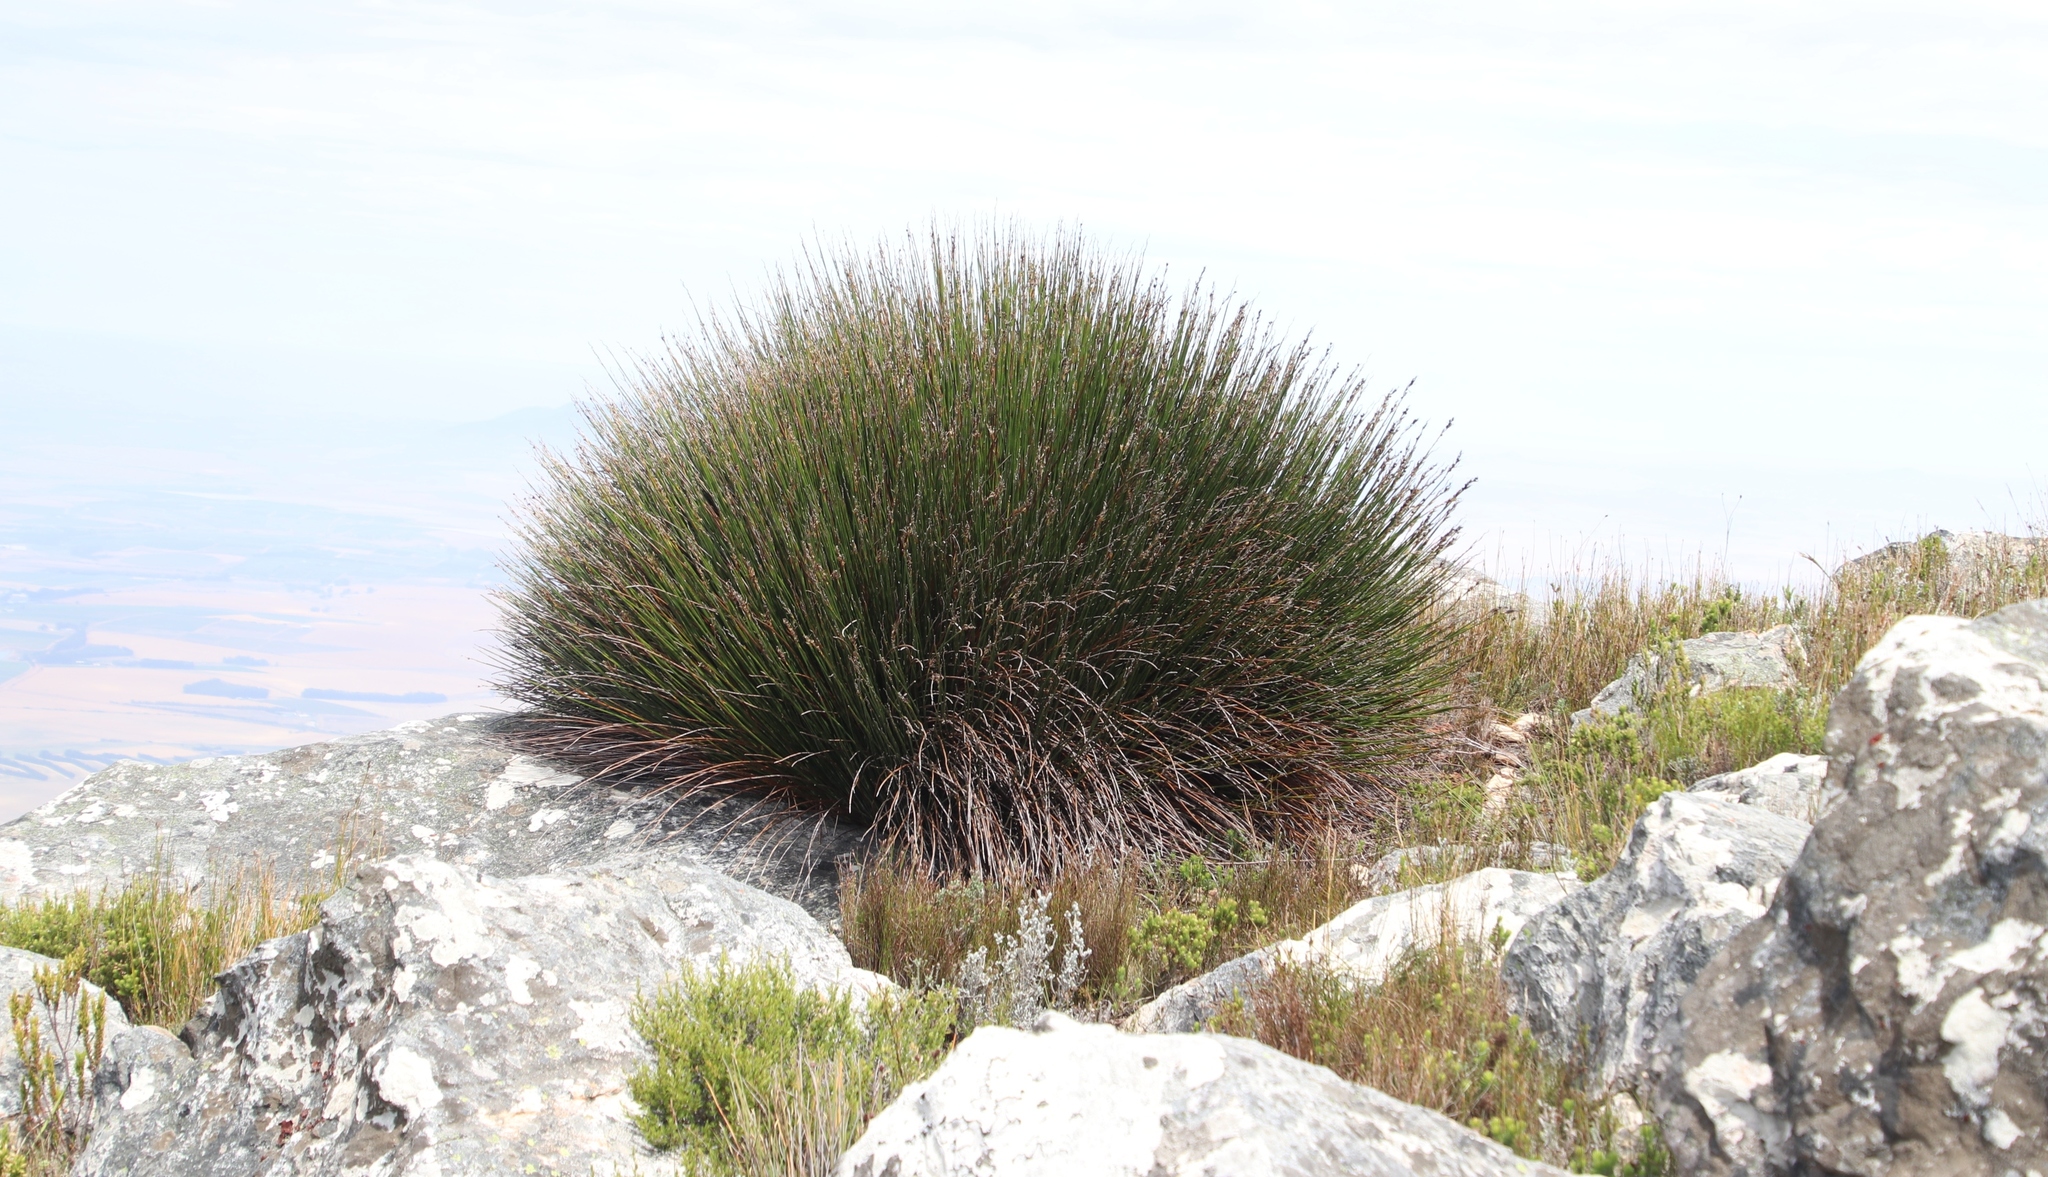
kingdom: Plantae
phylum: Tracheophyta
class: Liliopsida
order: Poales
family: Restionaceae
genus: Askidiosperma
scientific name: Askidiosperma andreaeanum
